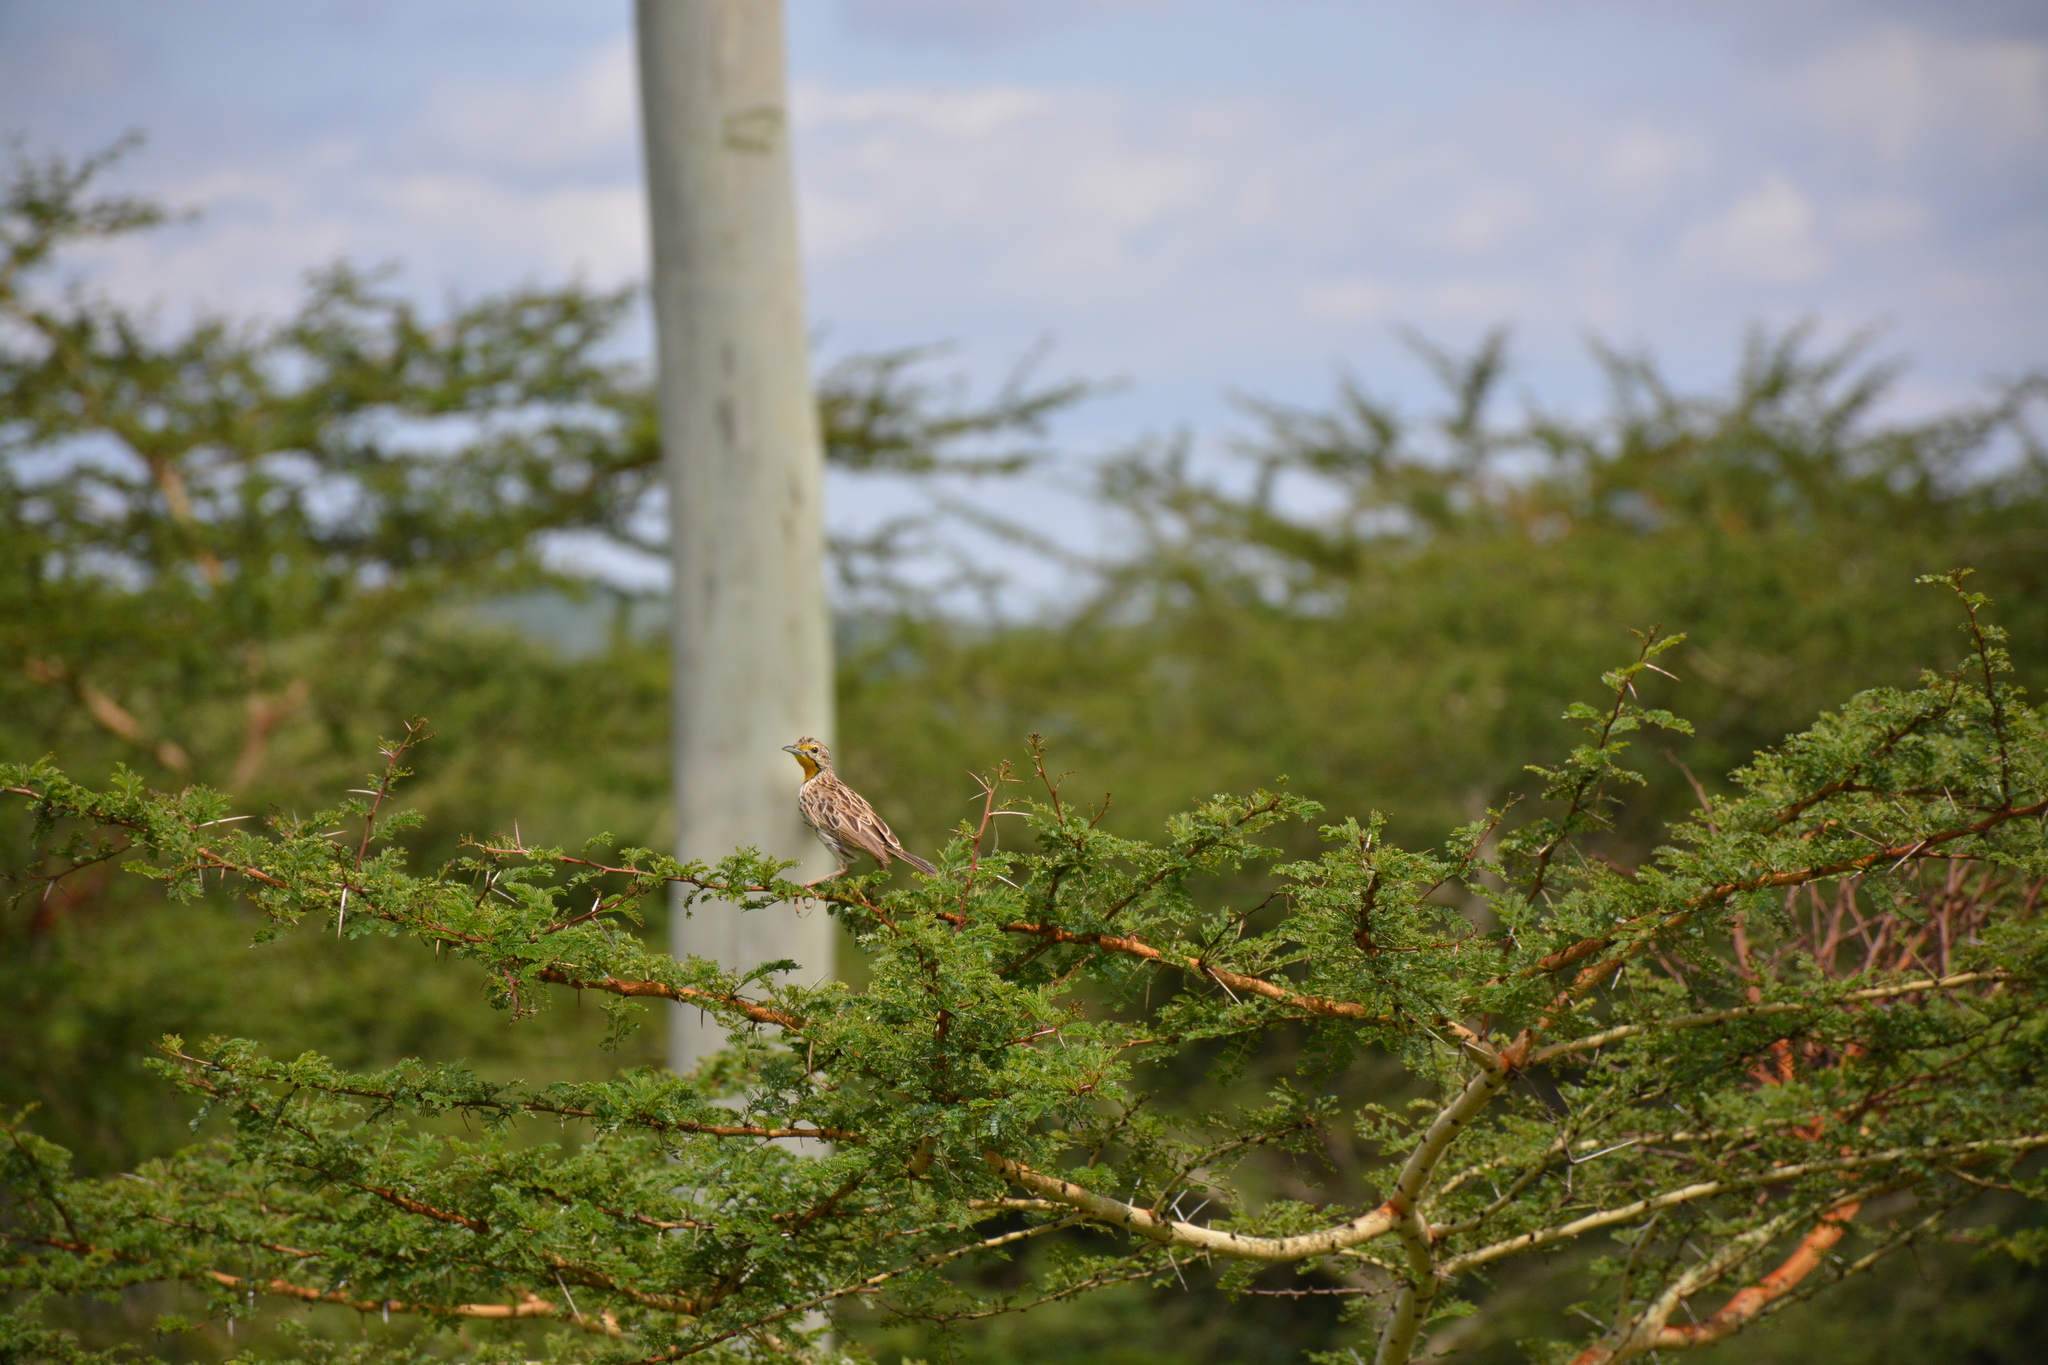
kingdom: Animalia
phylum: Chordata
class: Aves
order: Passeriformes
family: Motacillidae
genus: Macronyx
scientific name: Macronyx aurantiigula
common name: Pangani longclaw
